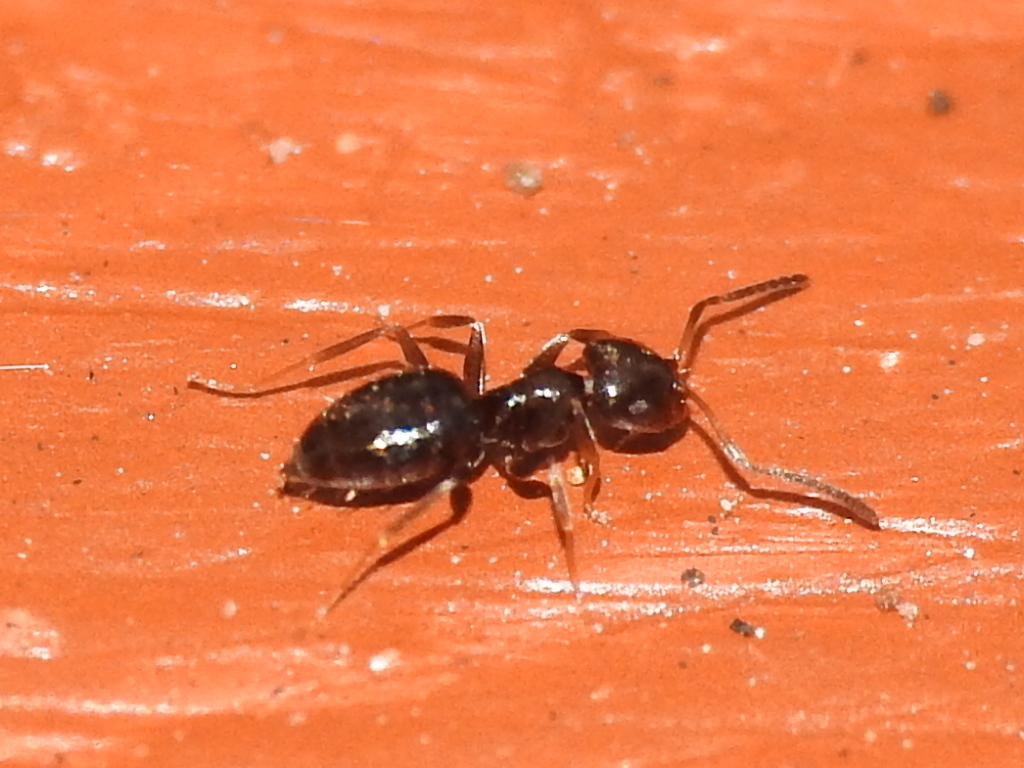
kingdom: Animalia
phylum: Arthropoda
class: Insecta
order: Hymenoptera
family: Formicidae
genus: Brachymyrmex
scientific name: Brachymyrmex patagonicus
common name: Dark rover ant
